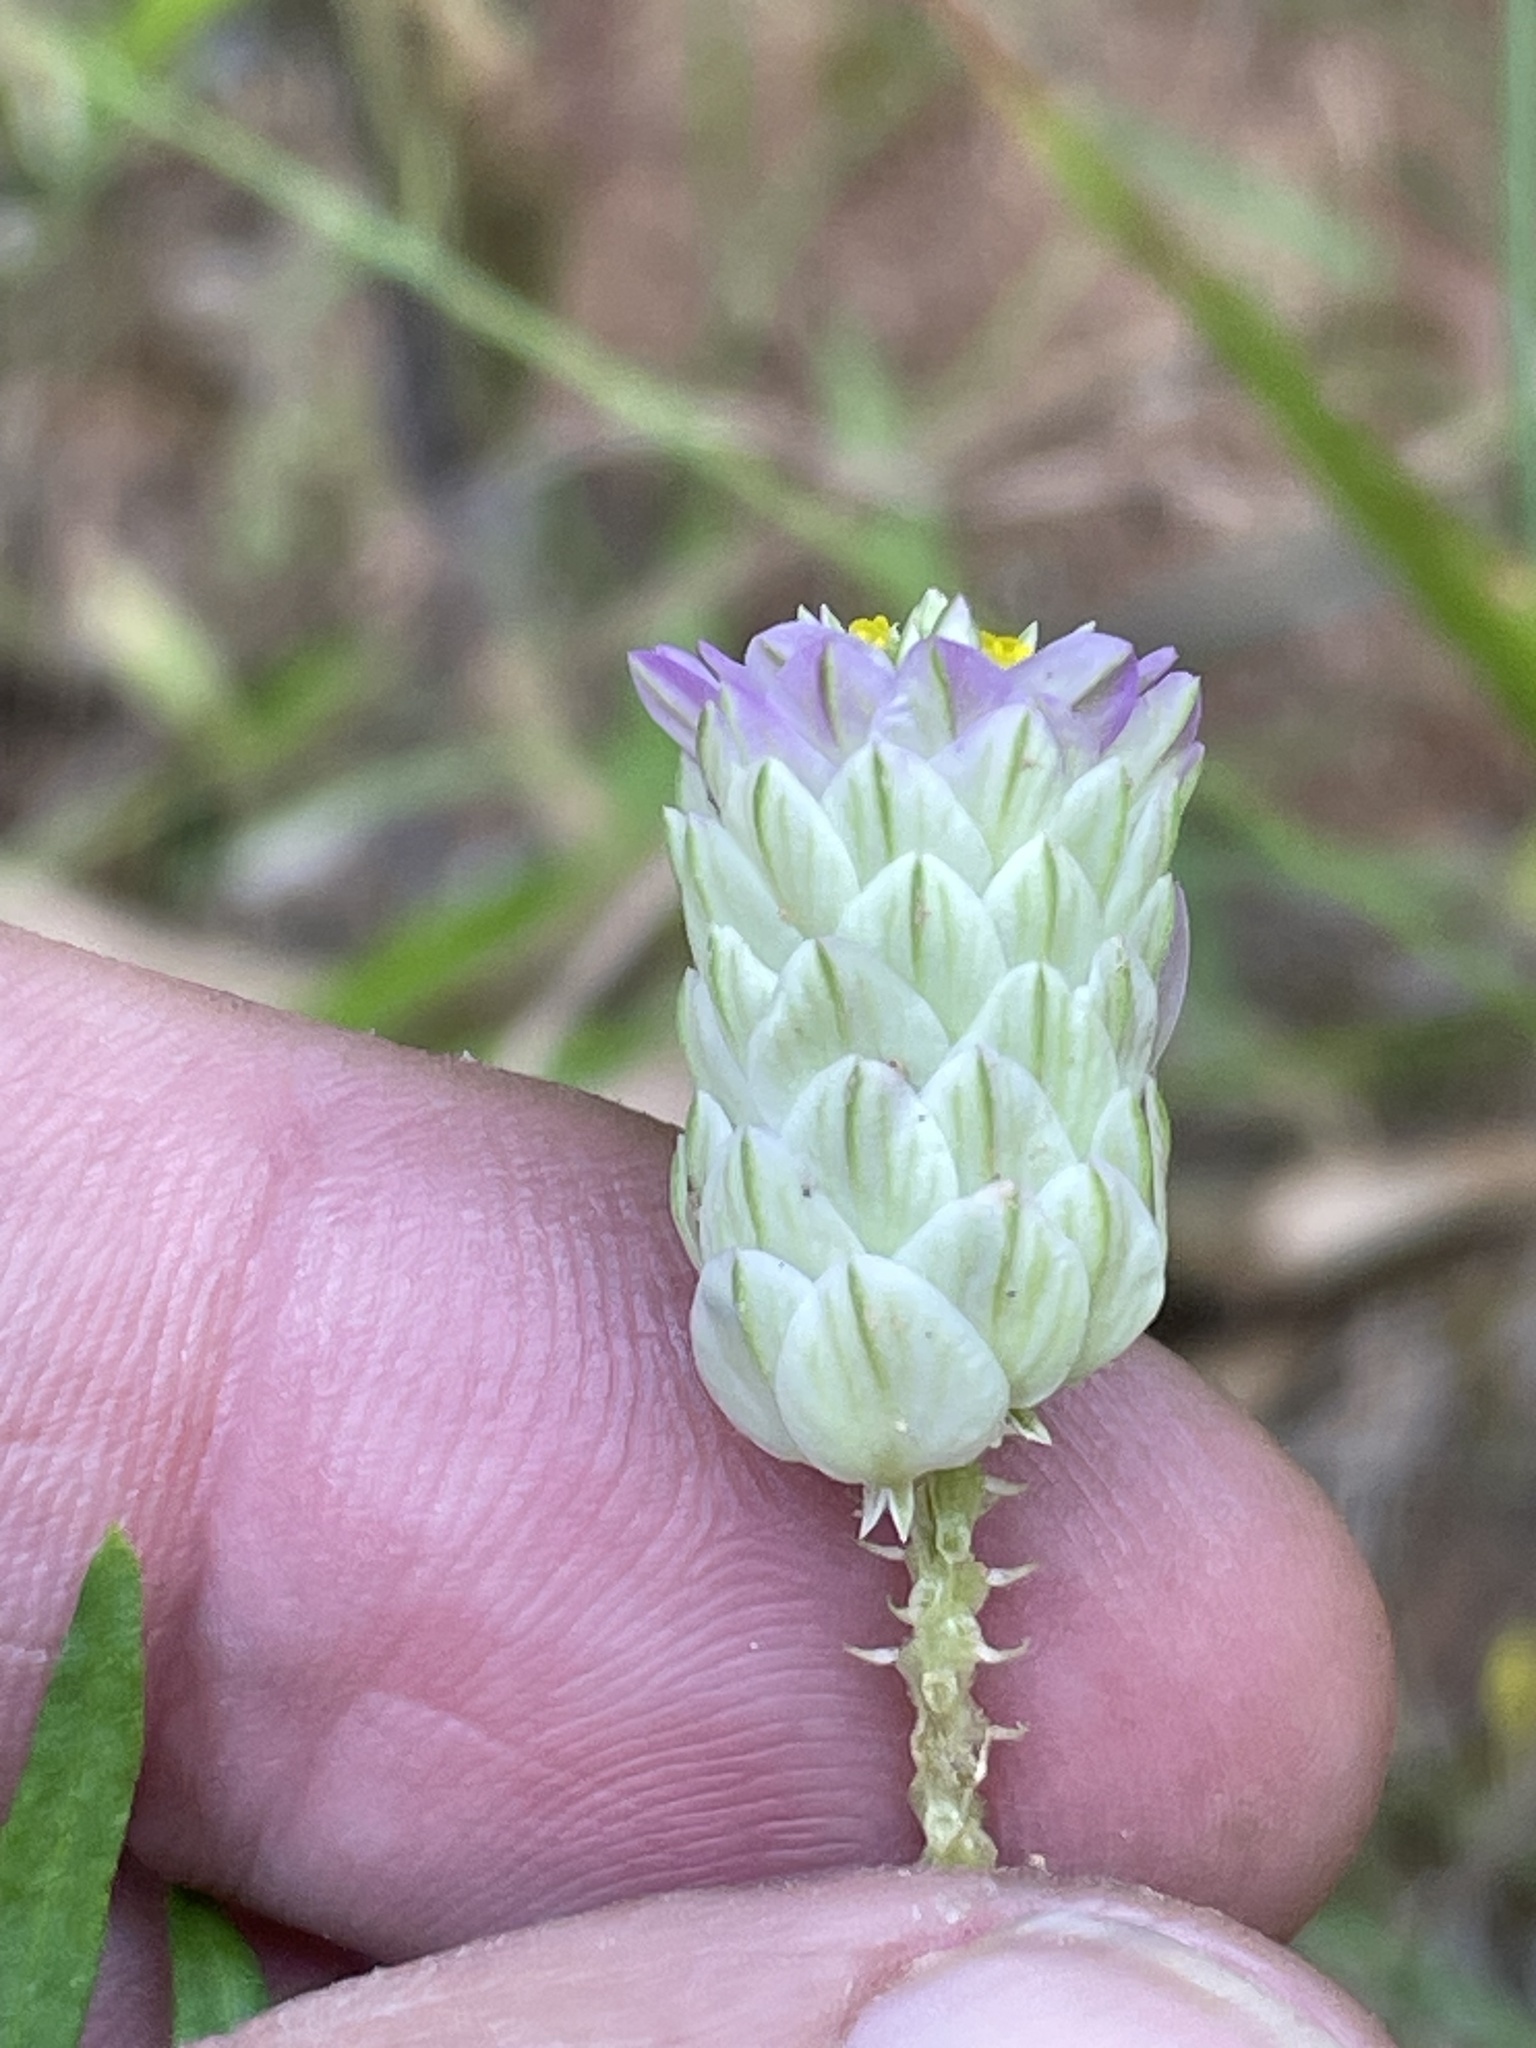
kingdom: Plantae
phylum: Tracheophyta
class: Magnoliopsida
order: Fabales
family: Polygalaceae
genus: Polygala
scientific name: Polygala sanguinea
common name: Blood milkwort
